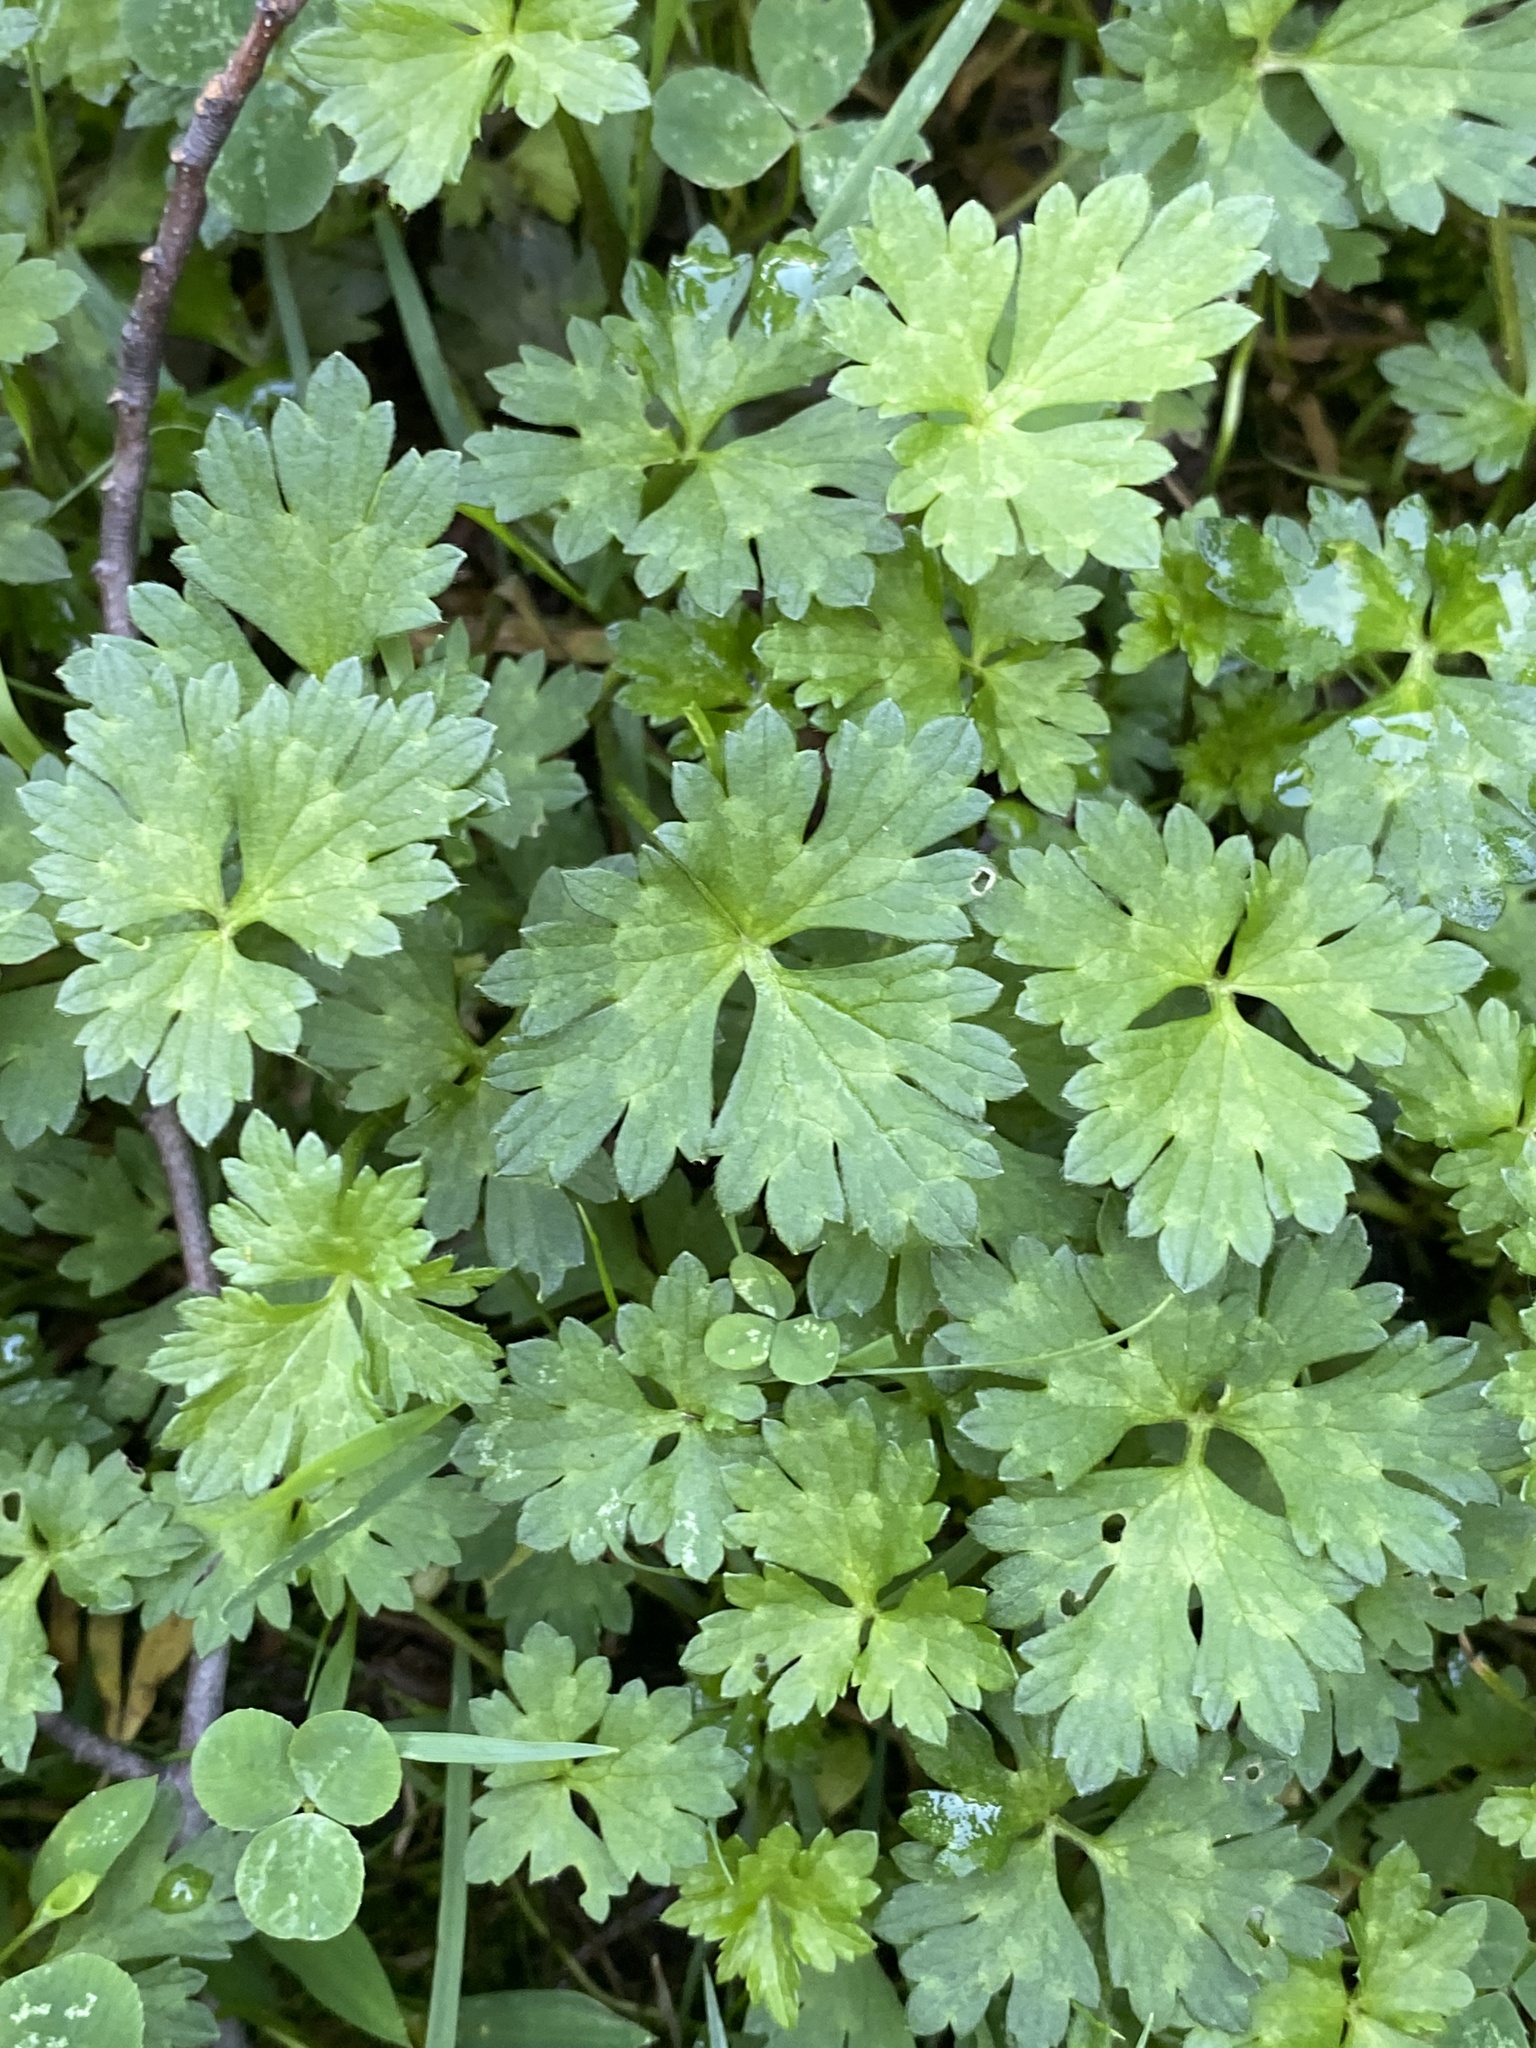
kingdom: Plantae
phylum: Tracheophyta
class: Magnoliopsida
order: Ranunculales
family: Ranunculaceae
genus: Ranunculus
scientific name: Ranunculus repens
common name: Creeping buttercup
